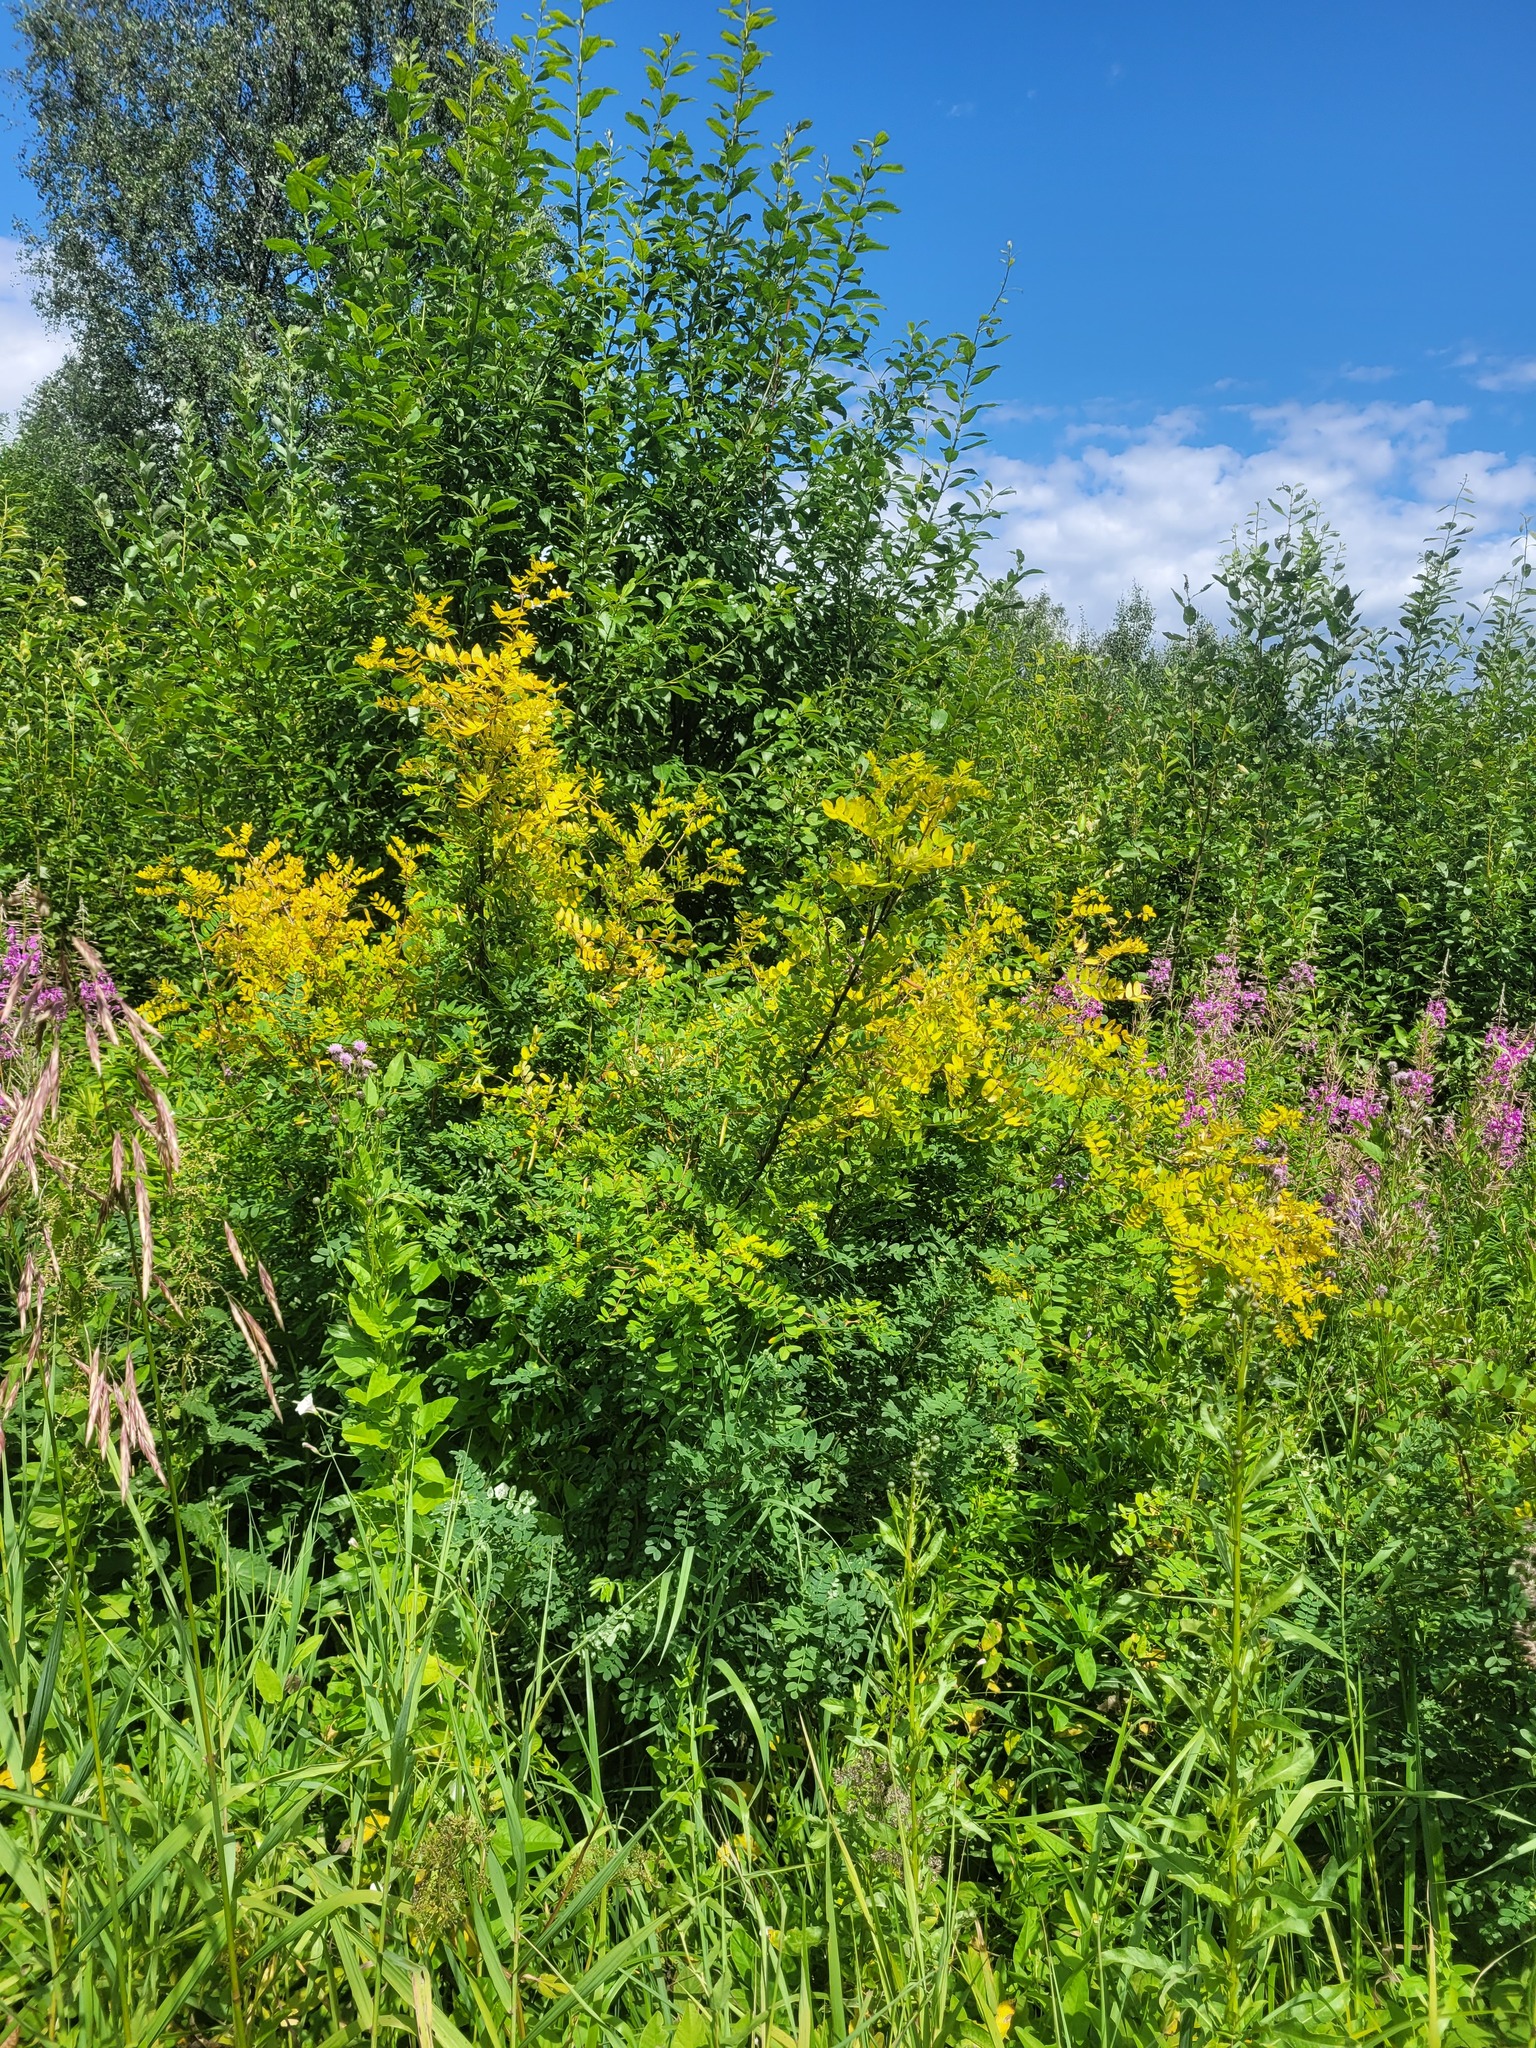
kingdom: Plantae
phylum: Tracheophyta
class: Magnoliopsida
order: Fabales
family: Fabaceae
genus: Caragana
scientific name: Caragana arborescens
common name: Siberian peashrub
